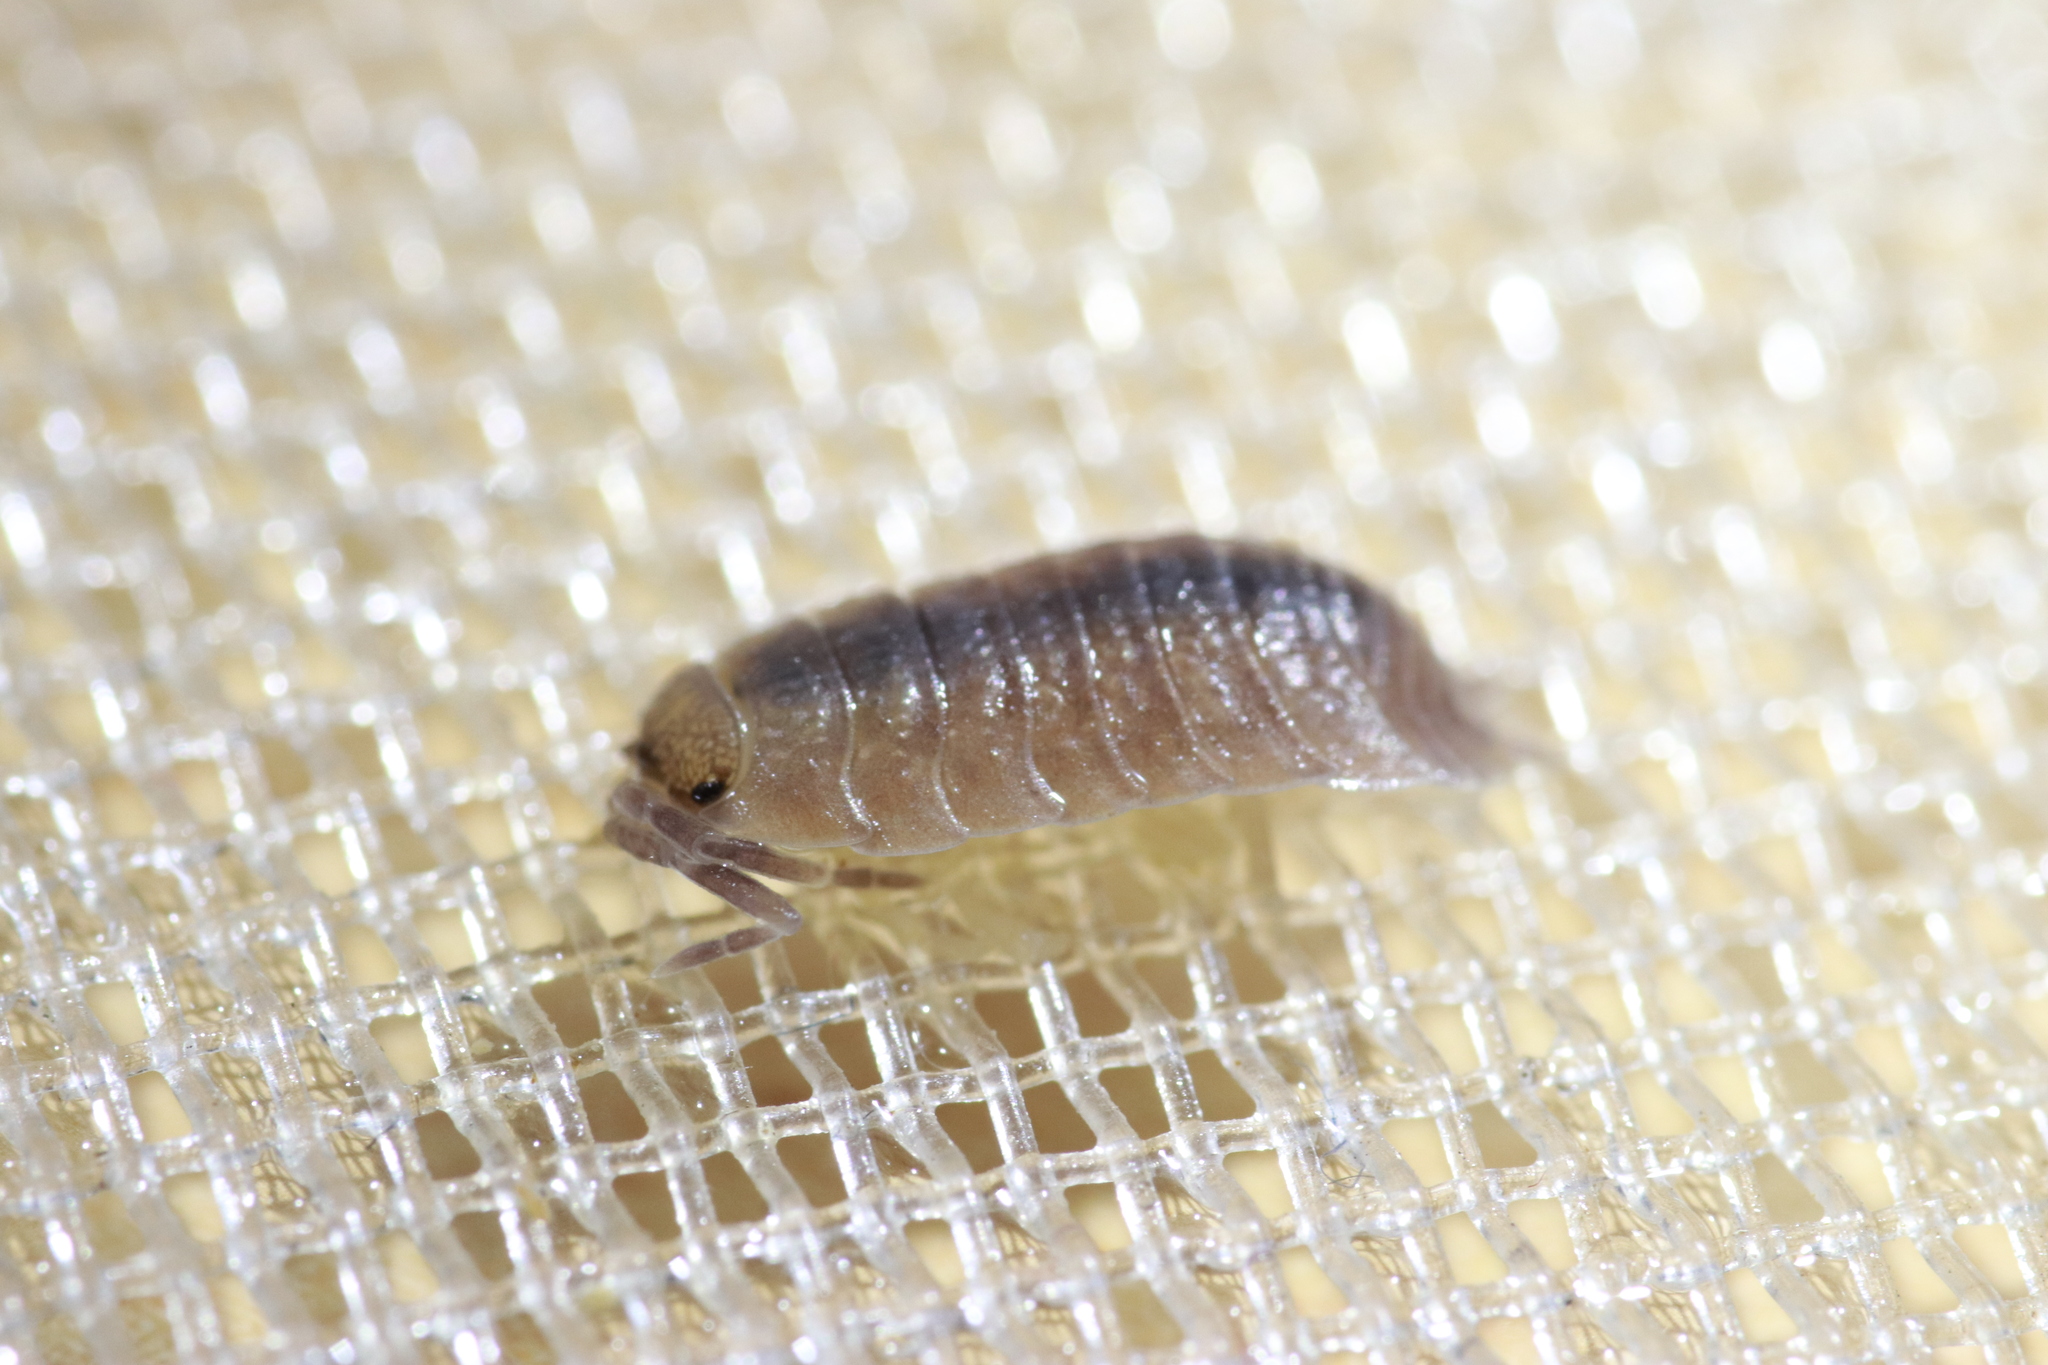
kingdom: Animalia
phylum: Arthropoda
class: Malacostraca
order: Isopoda
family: Porcellionidae
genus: Porcellio
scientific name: Porcellio incanus
